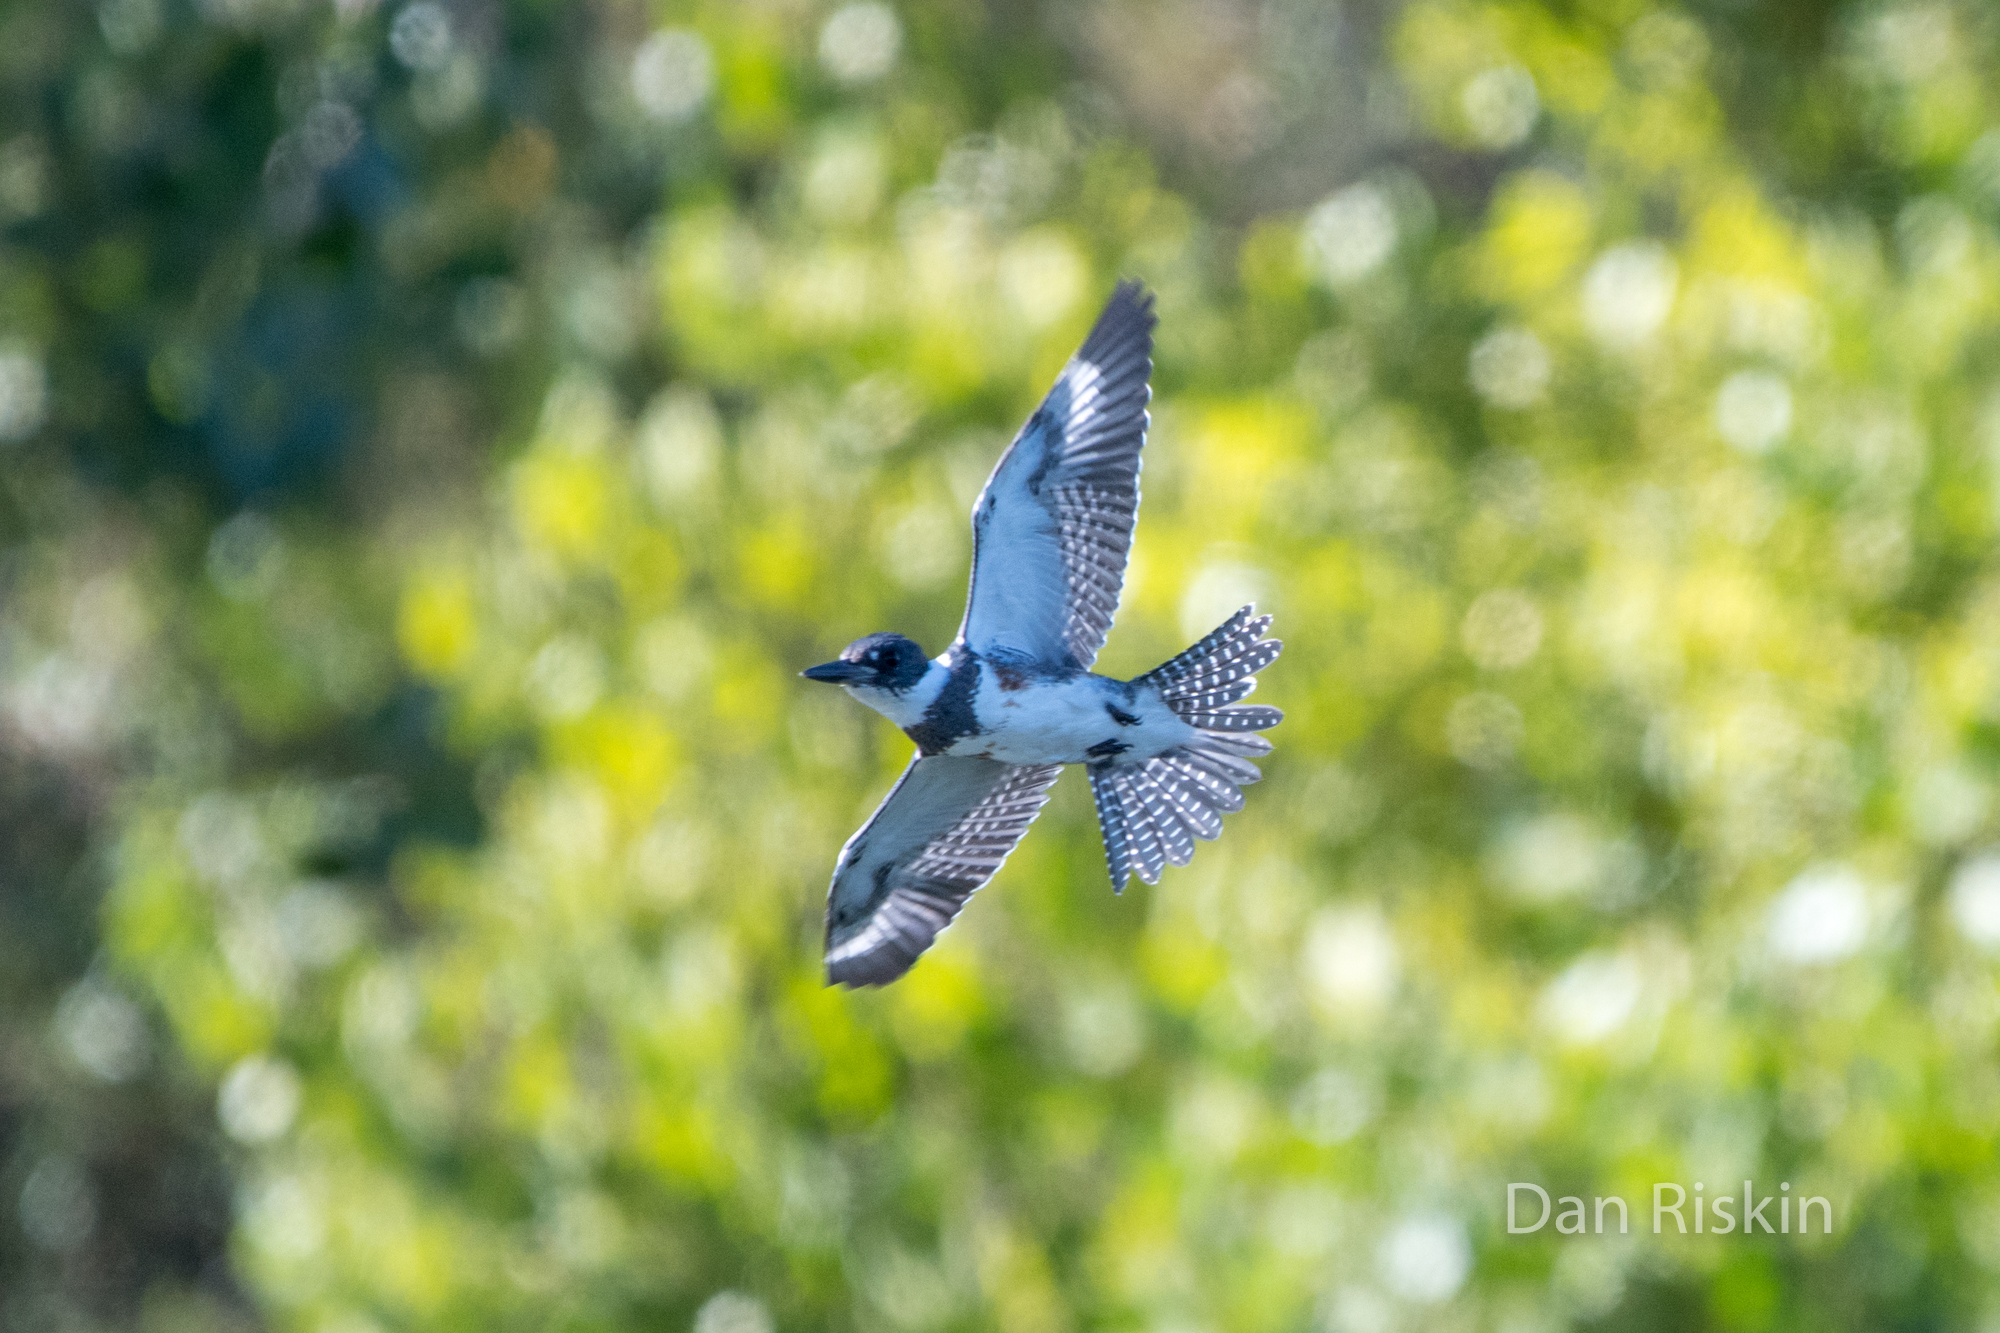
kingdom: Animalia
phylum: Chordata
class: Aves
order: Coraciiformes
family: Alcedinidae
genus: Megaceryle
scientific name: Megaceryle alcyon
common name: Belted kingfisher
